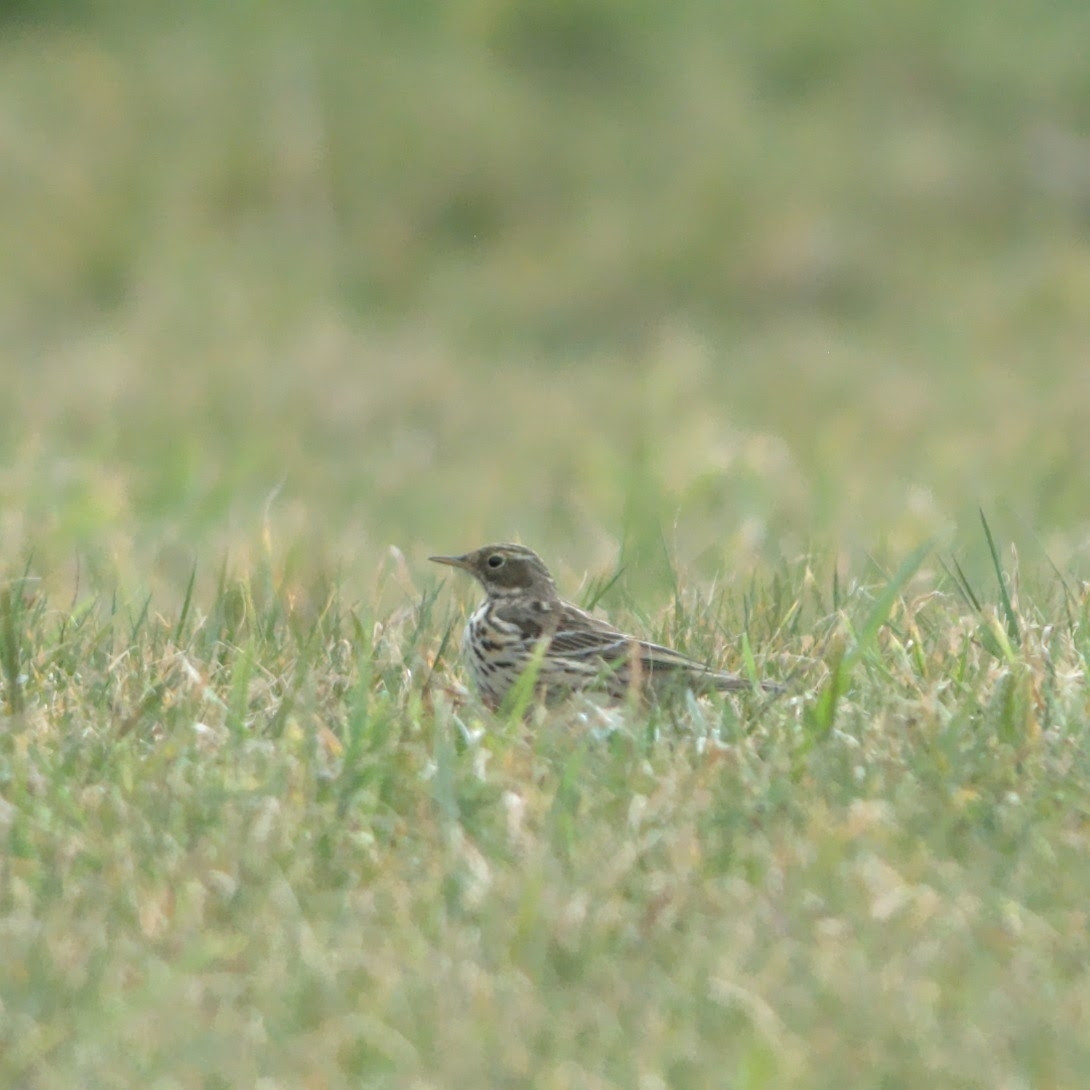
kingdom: Animalia
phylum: Chordata
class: Aves
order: Passeriformes
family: Motacillidae
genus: Anthus
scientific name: Anthus pratensis
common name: Meadow pipit
